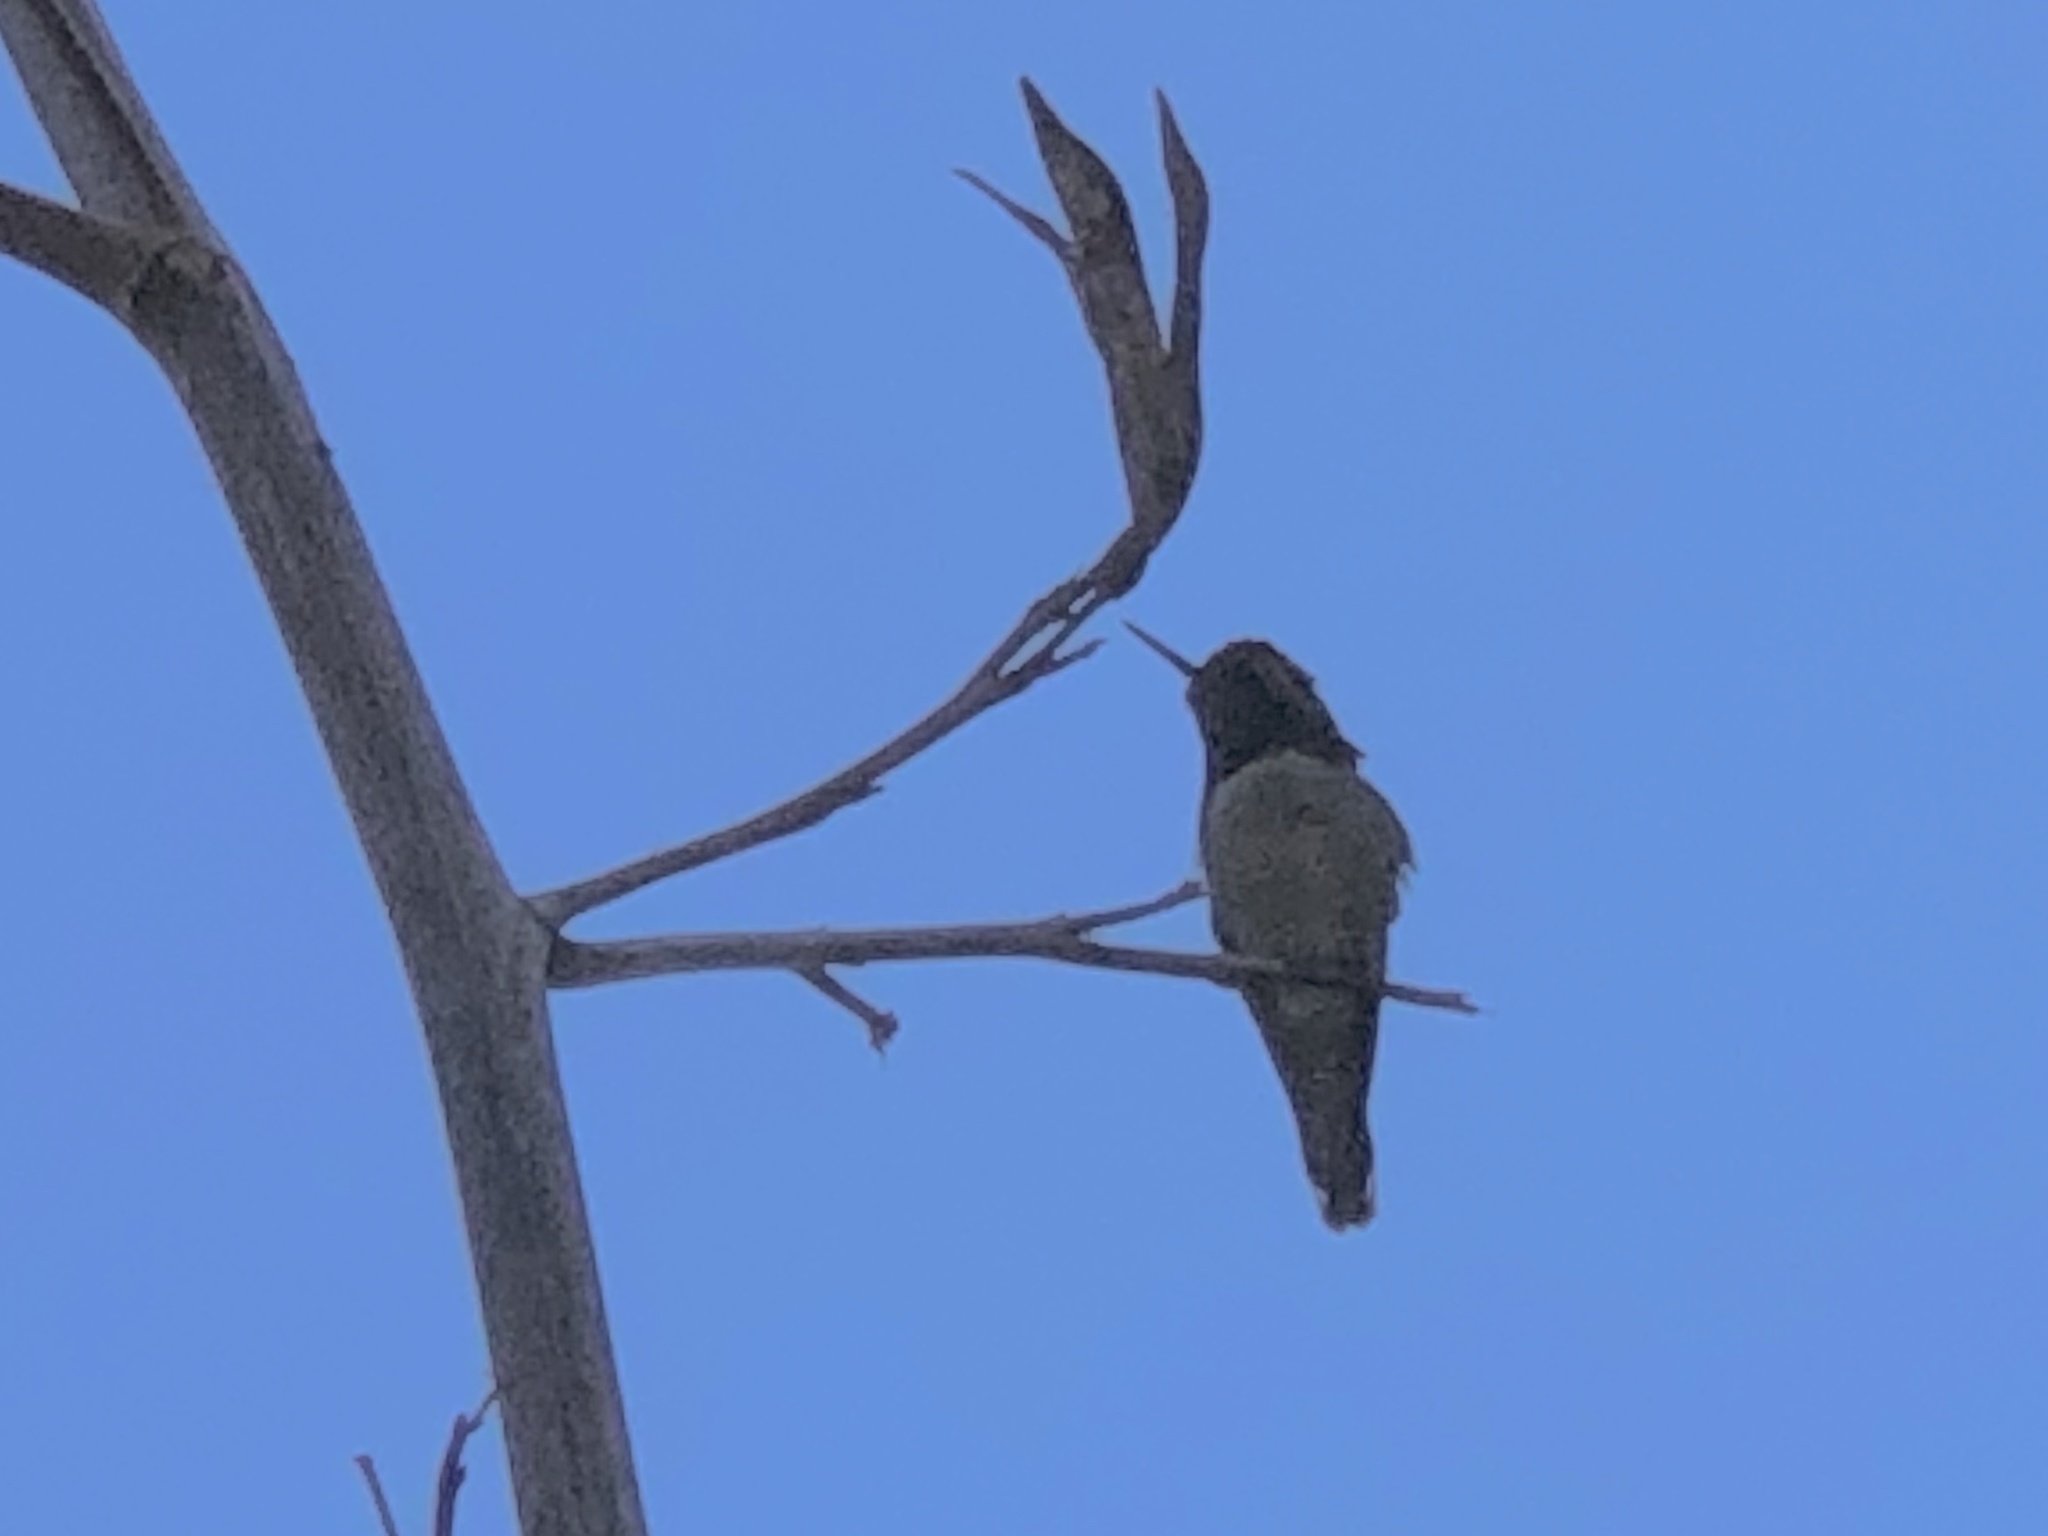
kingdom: Animalia
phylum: Chordata
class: Aves
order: Apodiformes
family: Trochilidae
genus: Calypte
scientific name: Calypte anna
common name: Anna's hummingbird
